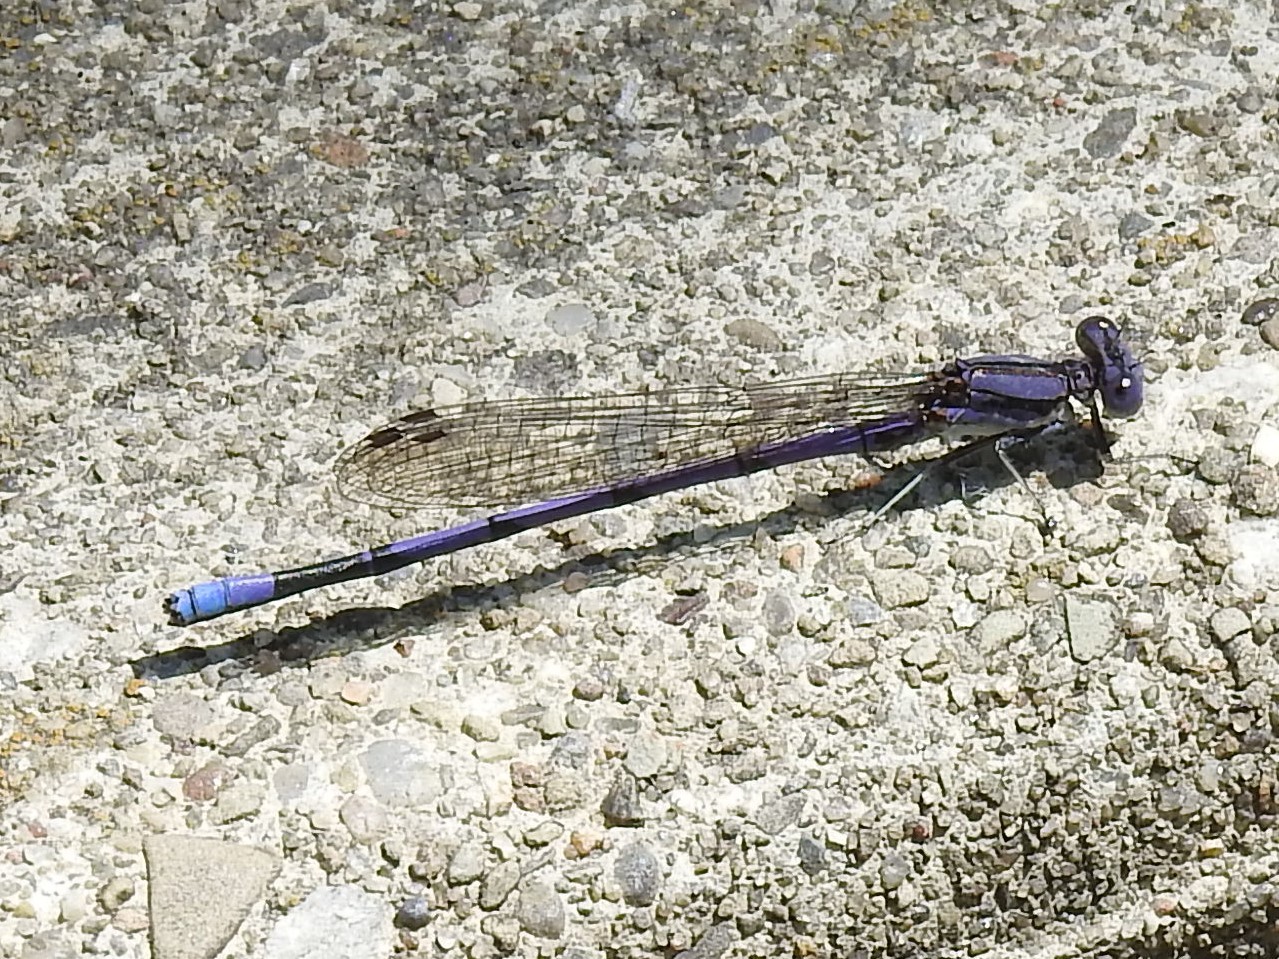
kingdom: Animalia
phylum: Arthropoda
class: Insecta
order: Odonata
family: Coenagrionidae
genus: Argia
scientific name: Argia fumipennis
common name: Variable dancer
